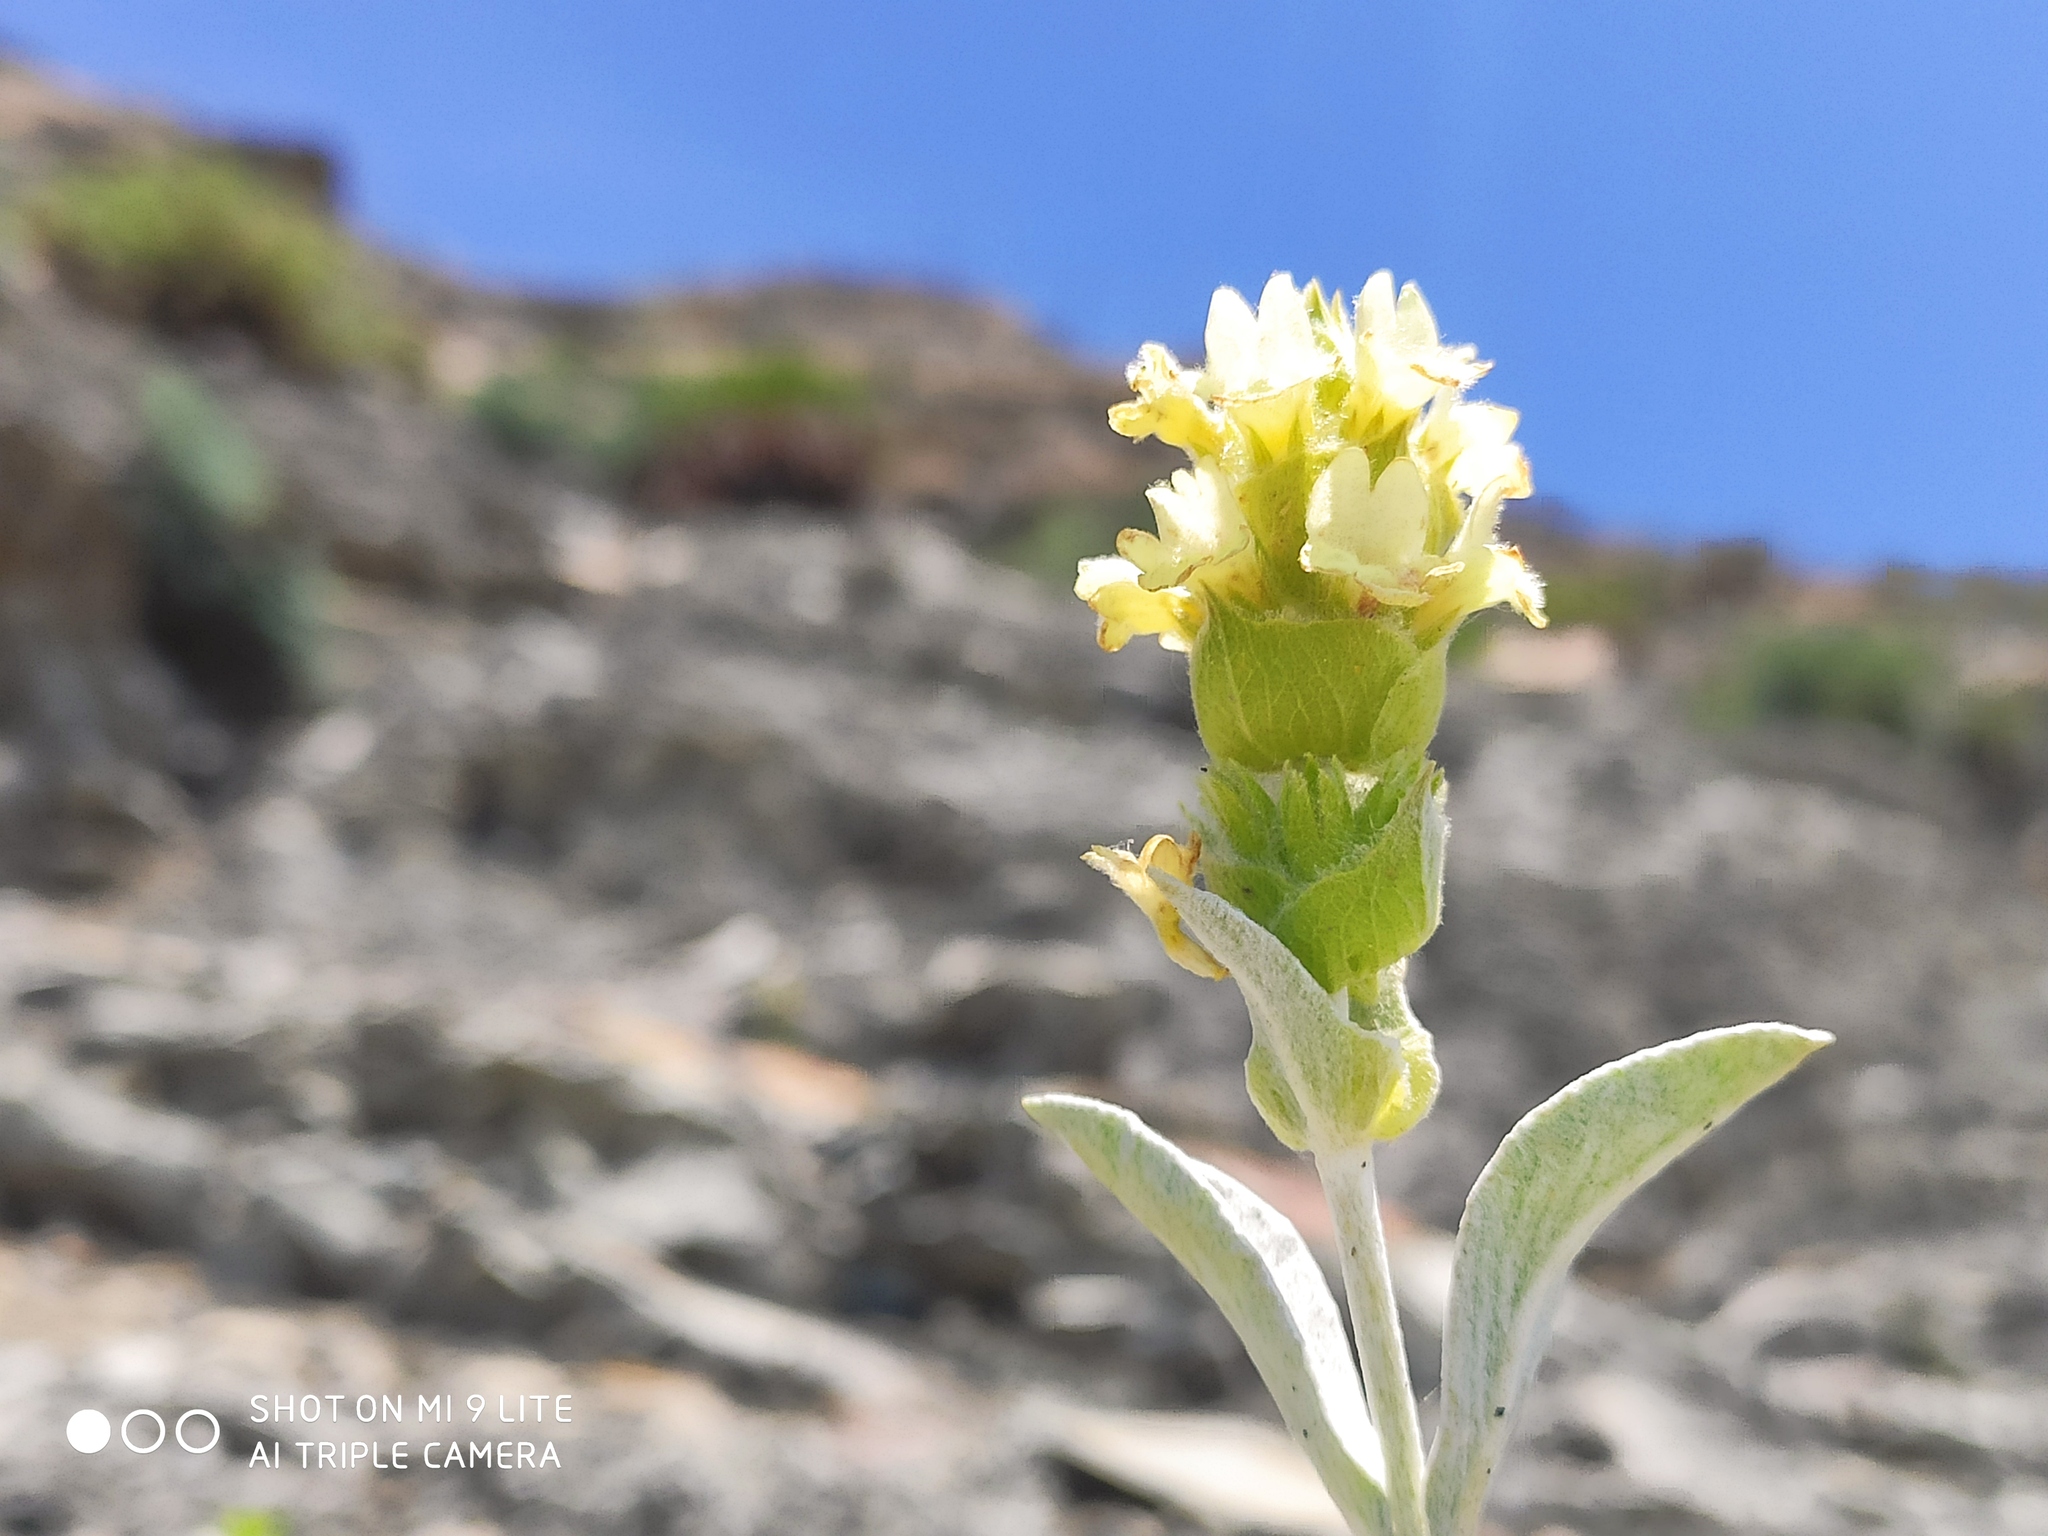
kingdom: Plantae
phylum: Tracheophyta
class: Magnoliopsida
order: Lamiales
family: Lamiaceae
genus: Sideritis
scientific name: Sideritis euxina
